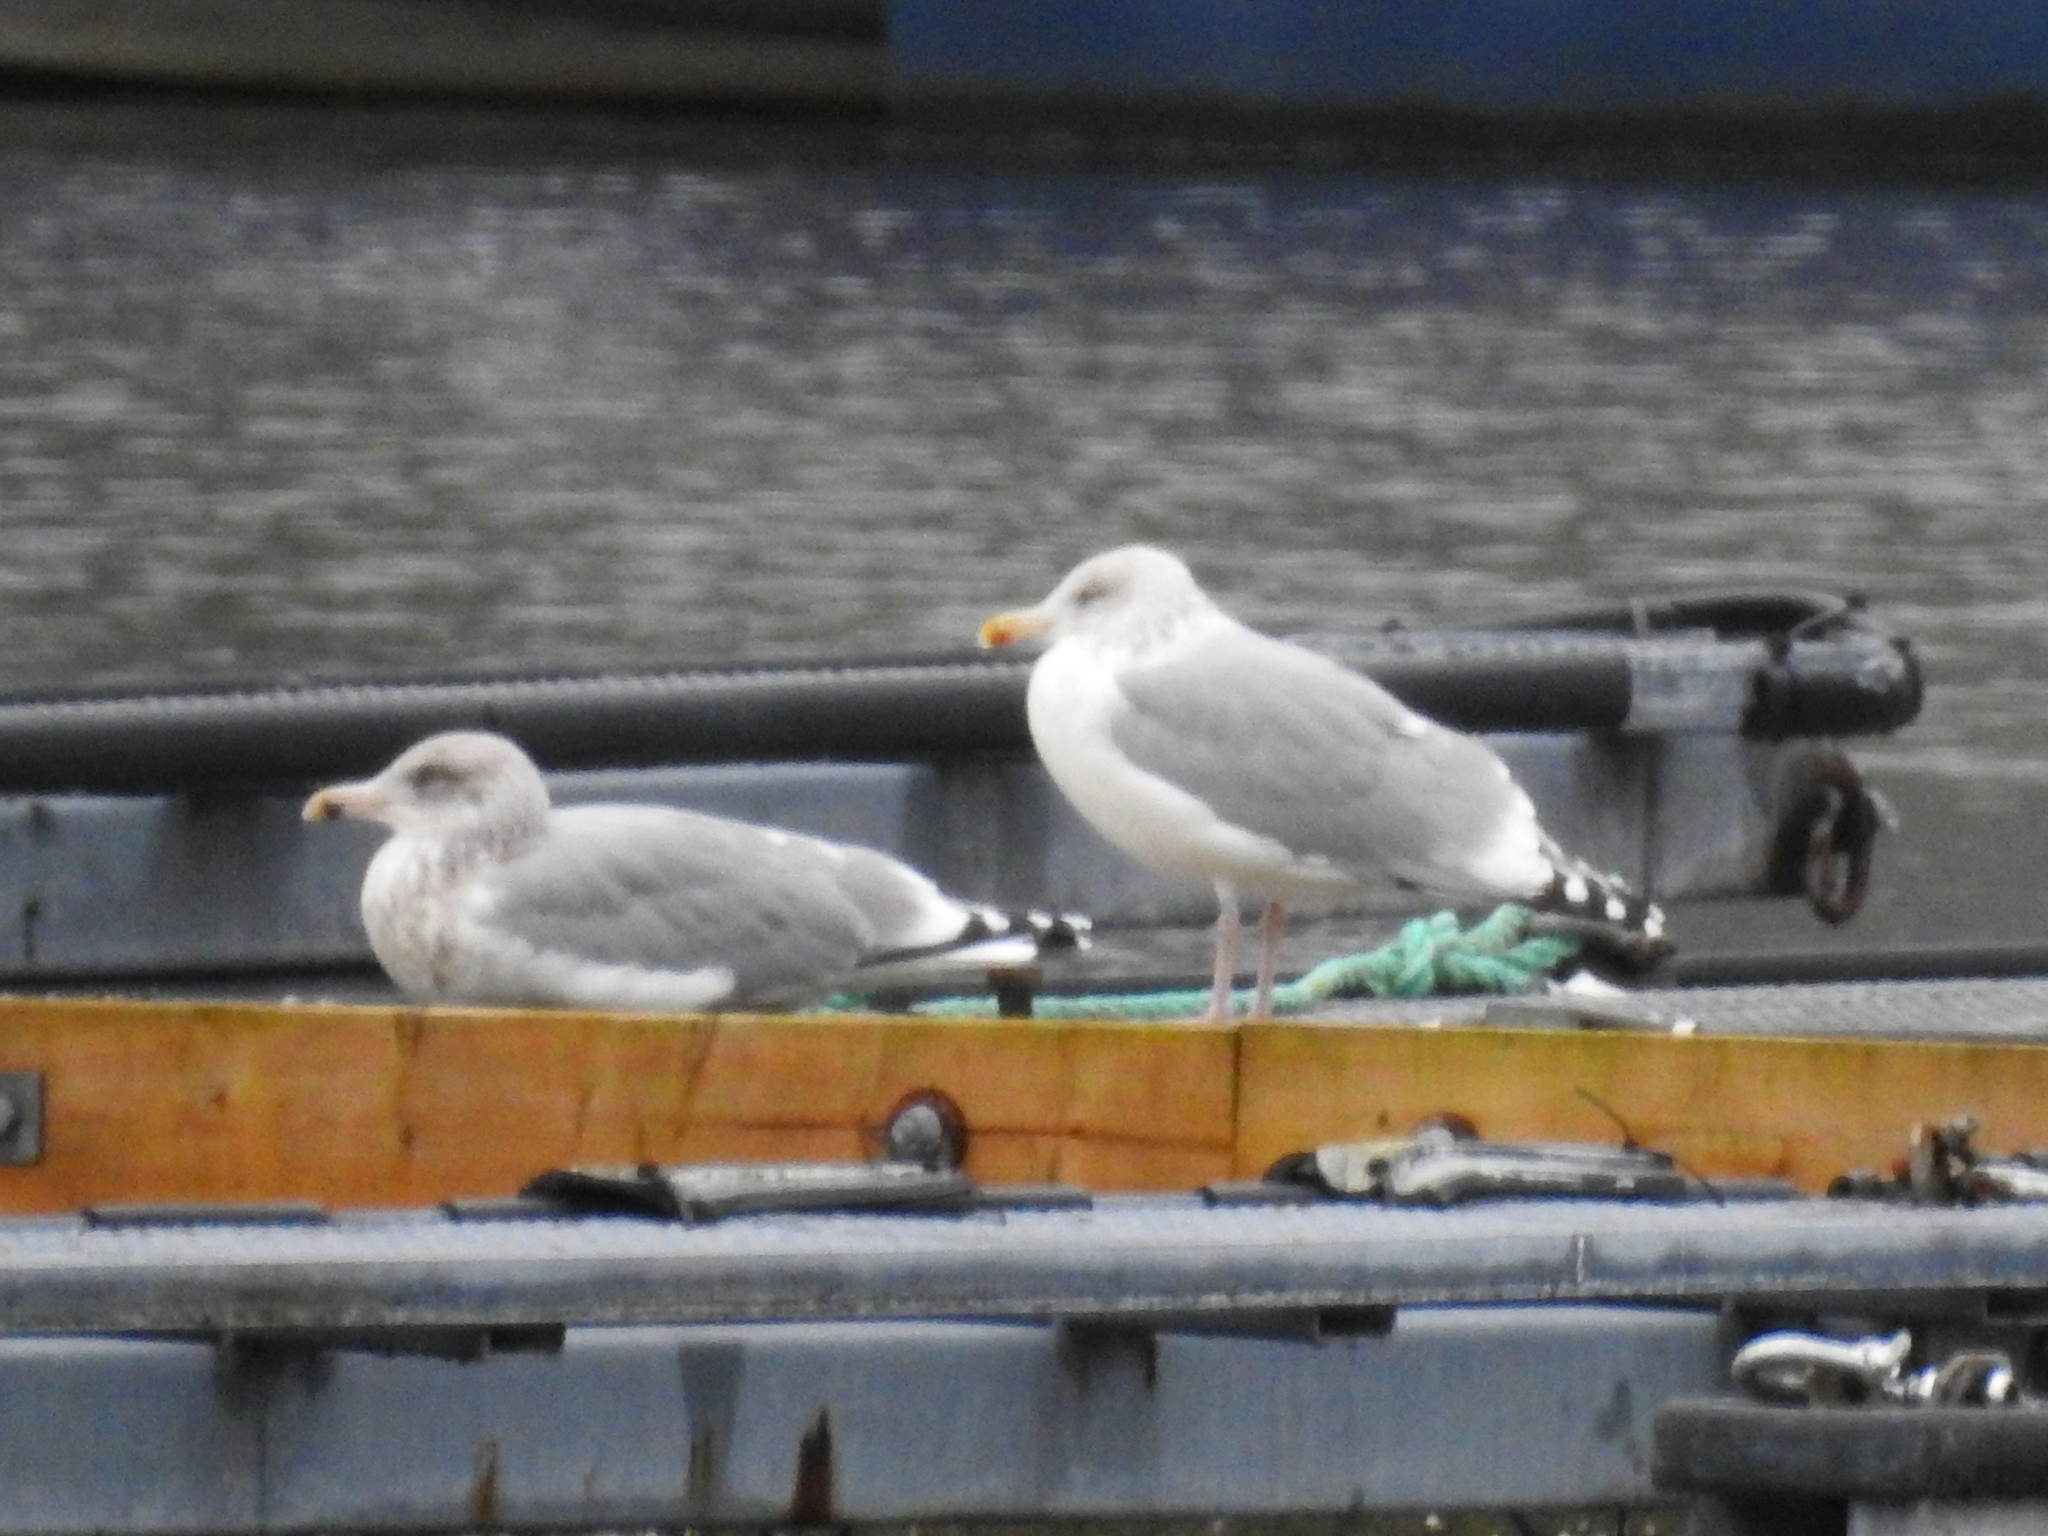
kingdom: Animalia
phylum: Chordata
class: Aves
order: Charadriiformes
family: Laridae
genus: Larus
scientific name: Larus argentatus
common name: Herring gull
